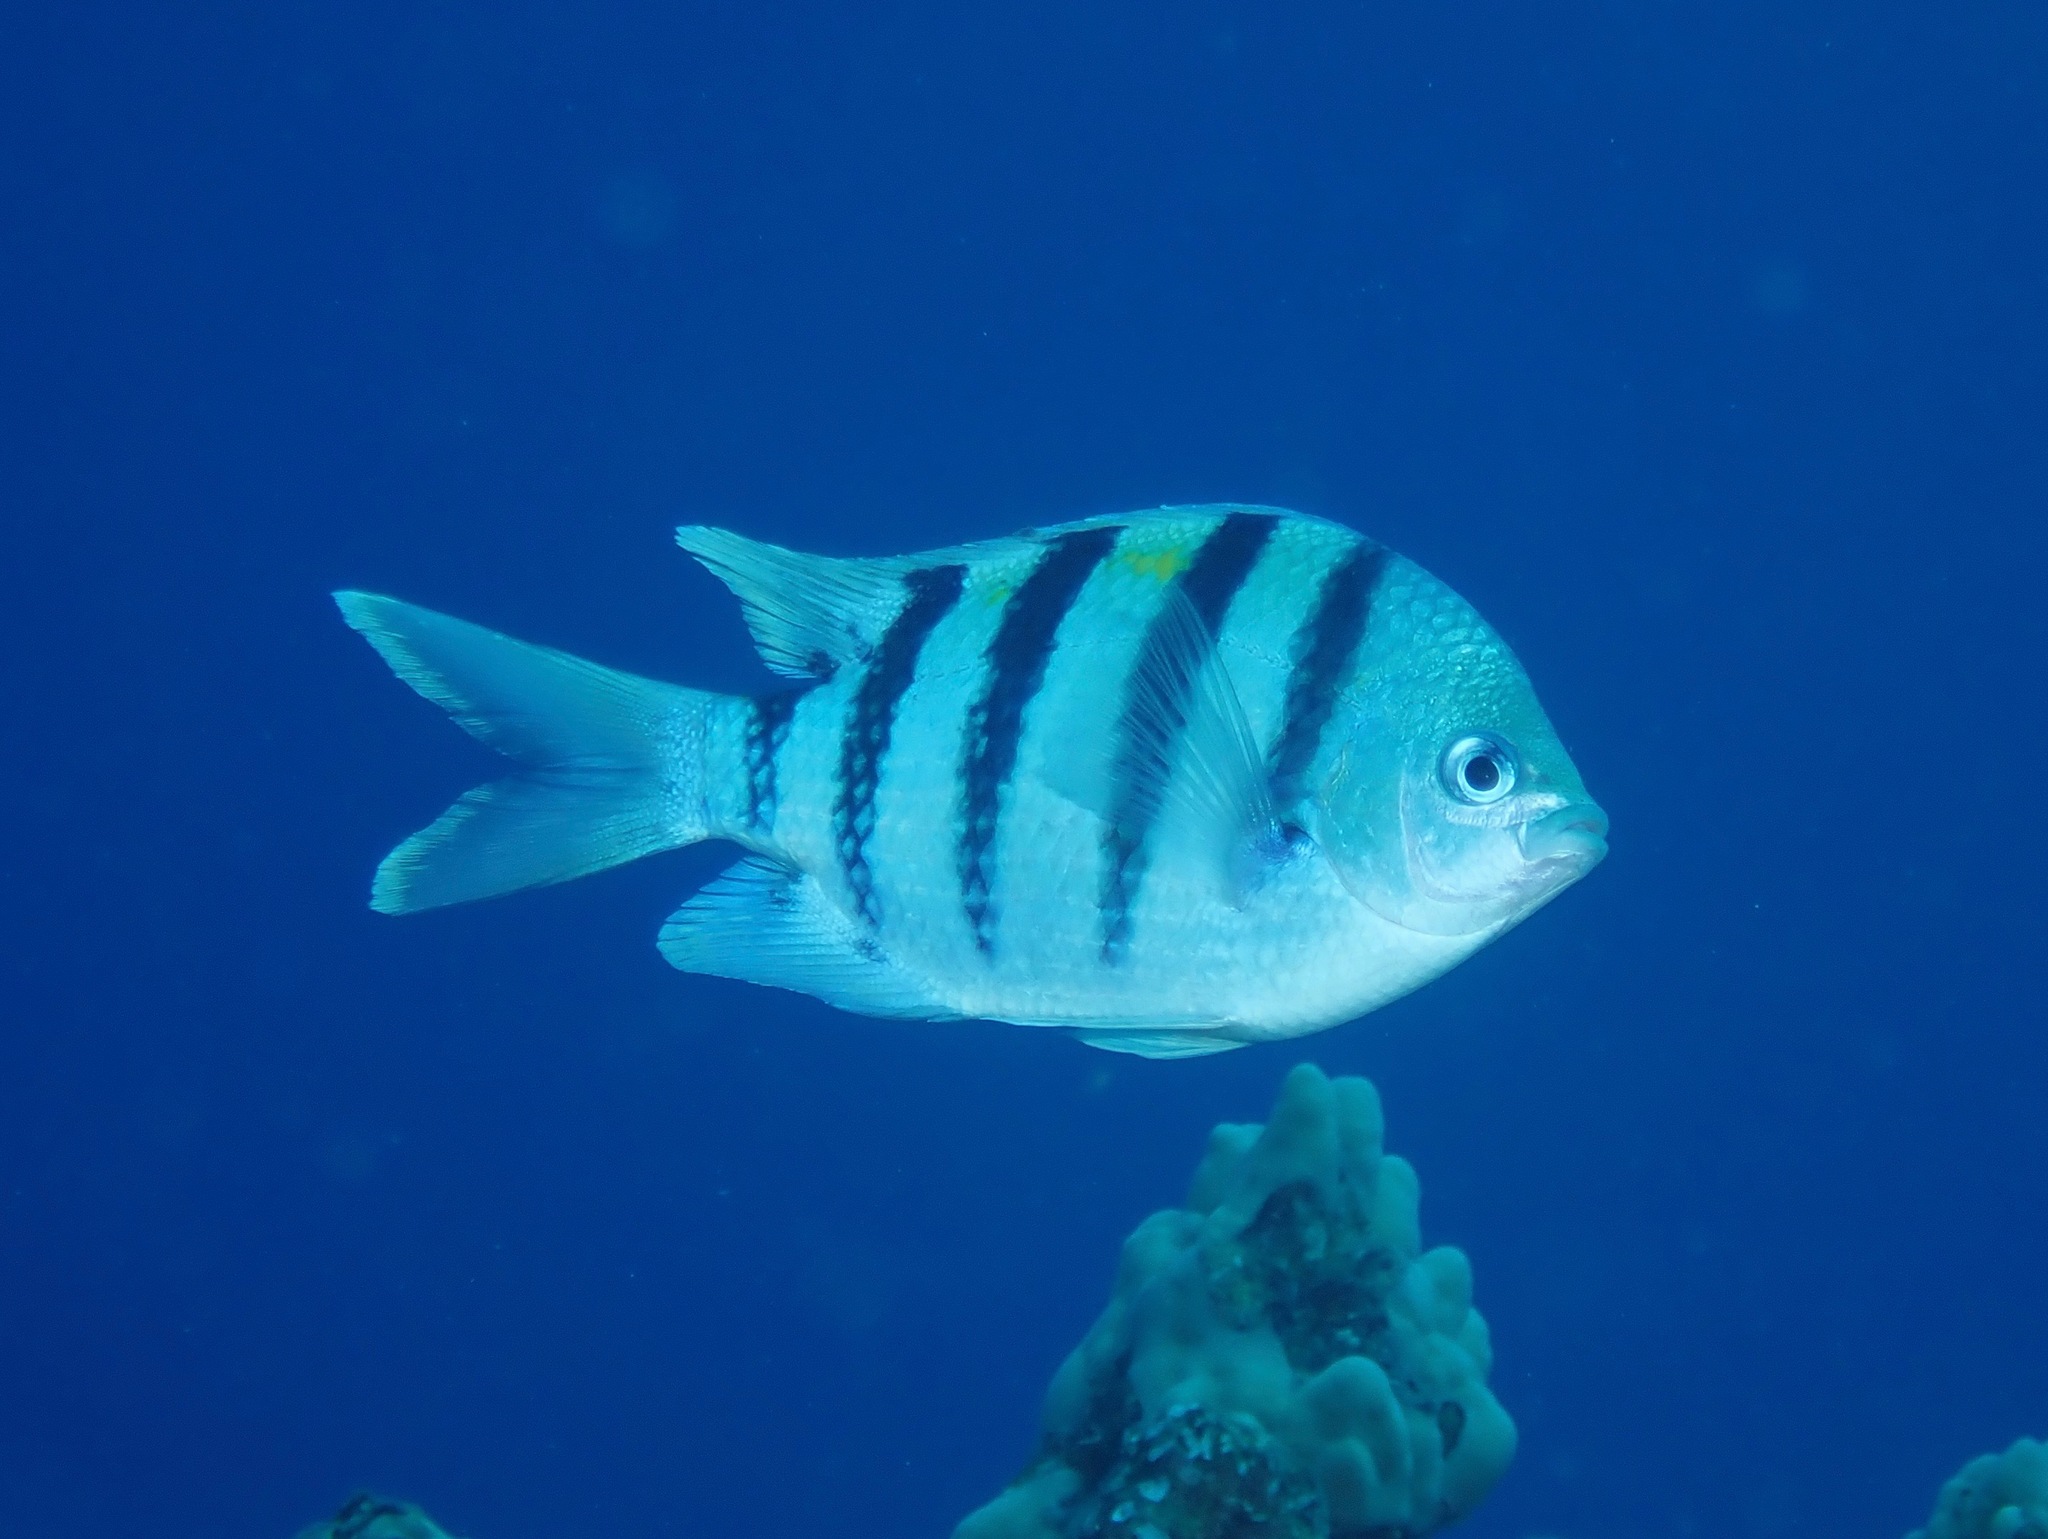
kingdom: Animalia
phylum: Chordata
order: Perciformes
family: Pomacentridae
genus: Abudefduf
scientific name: Abudefduf
